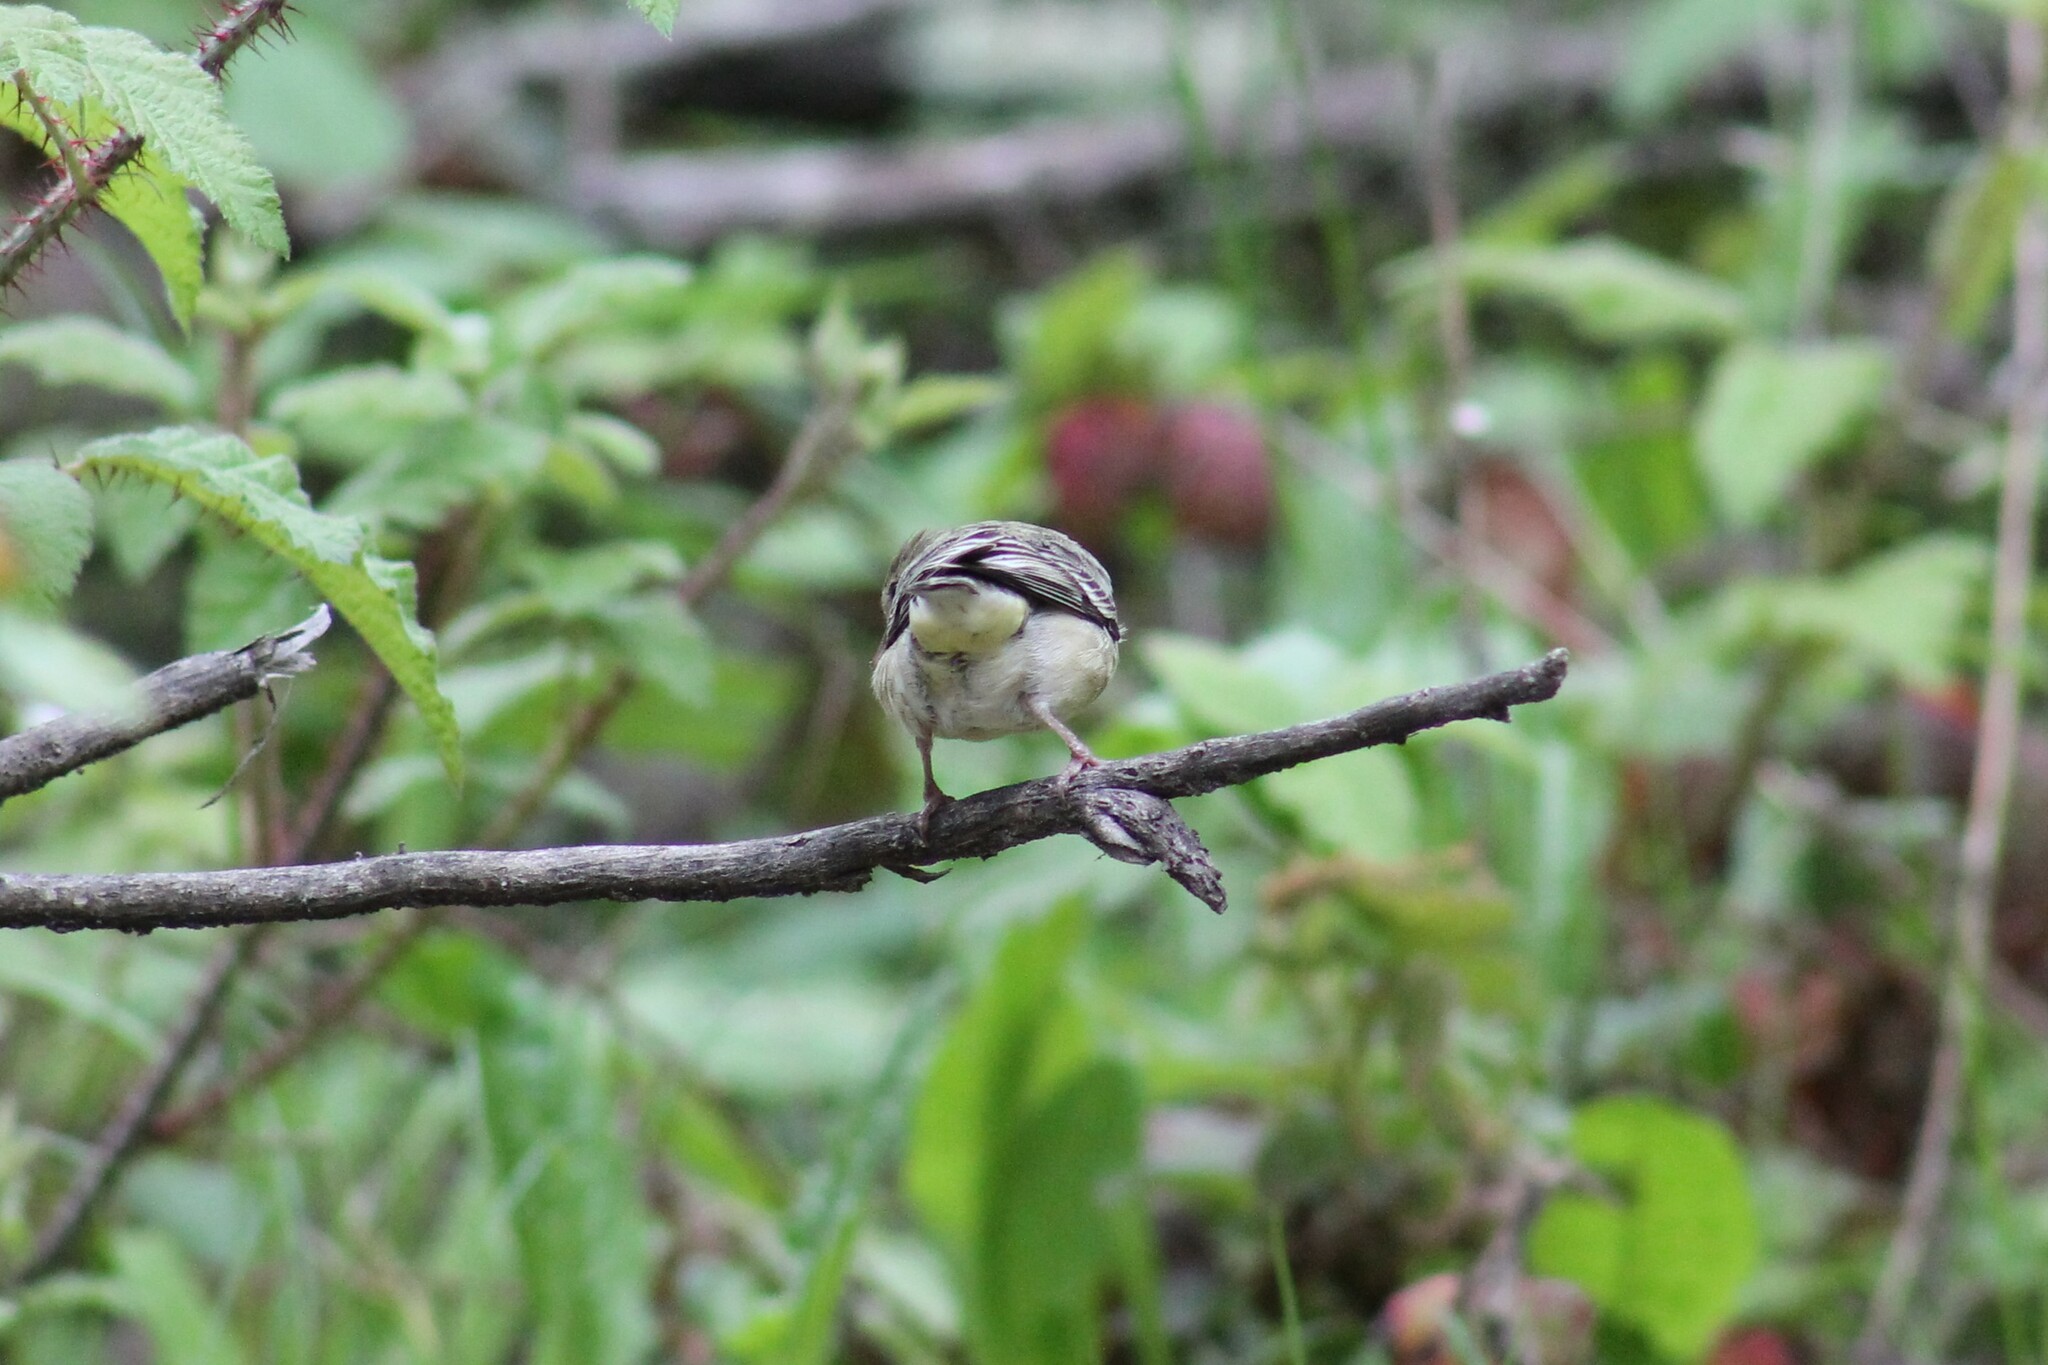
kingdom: Animalia
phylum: Chordata
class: Aves
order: Passeriformes
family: Fringillidae
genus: Spinus
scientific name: Spinus psaltria
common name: Lesser goldfinch
